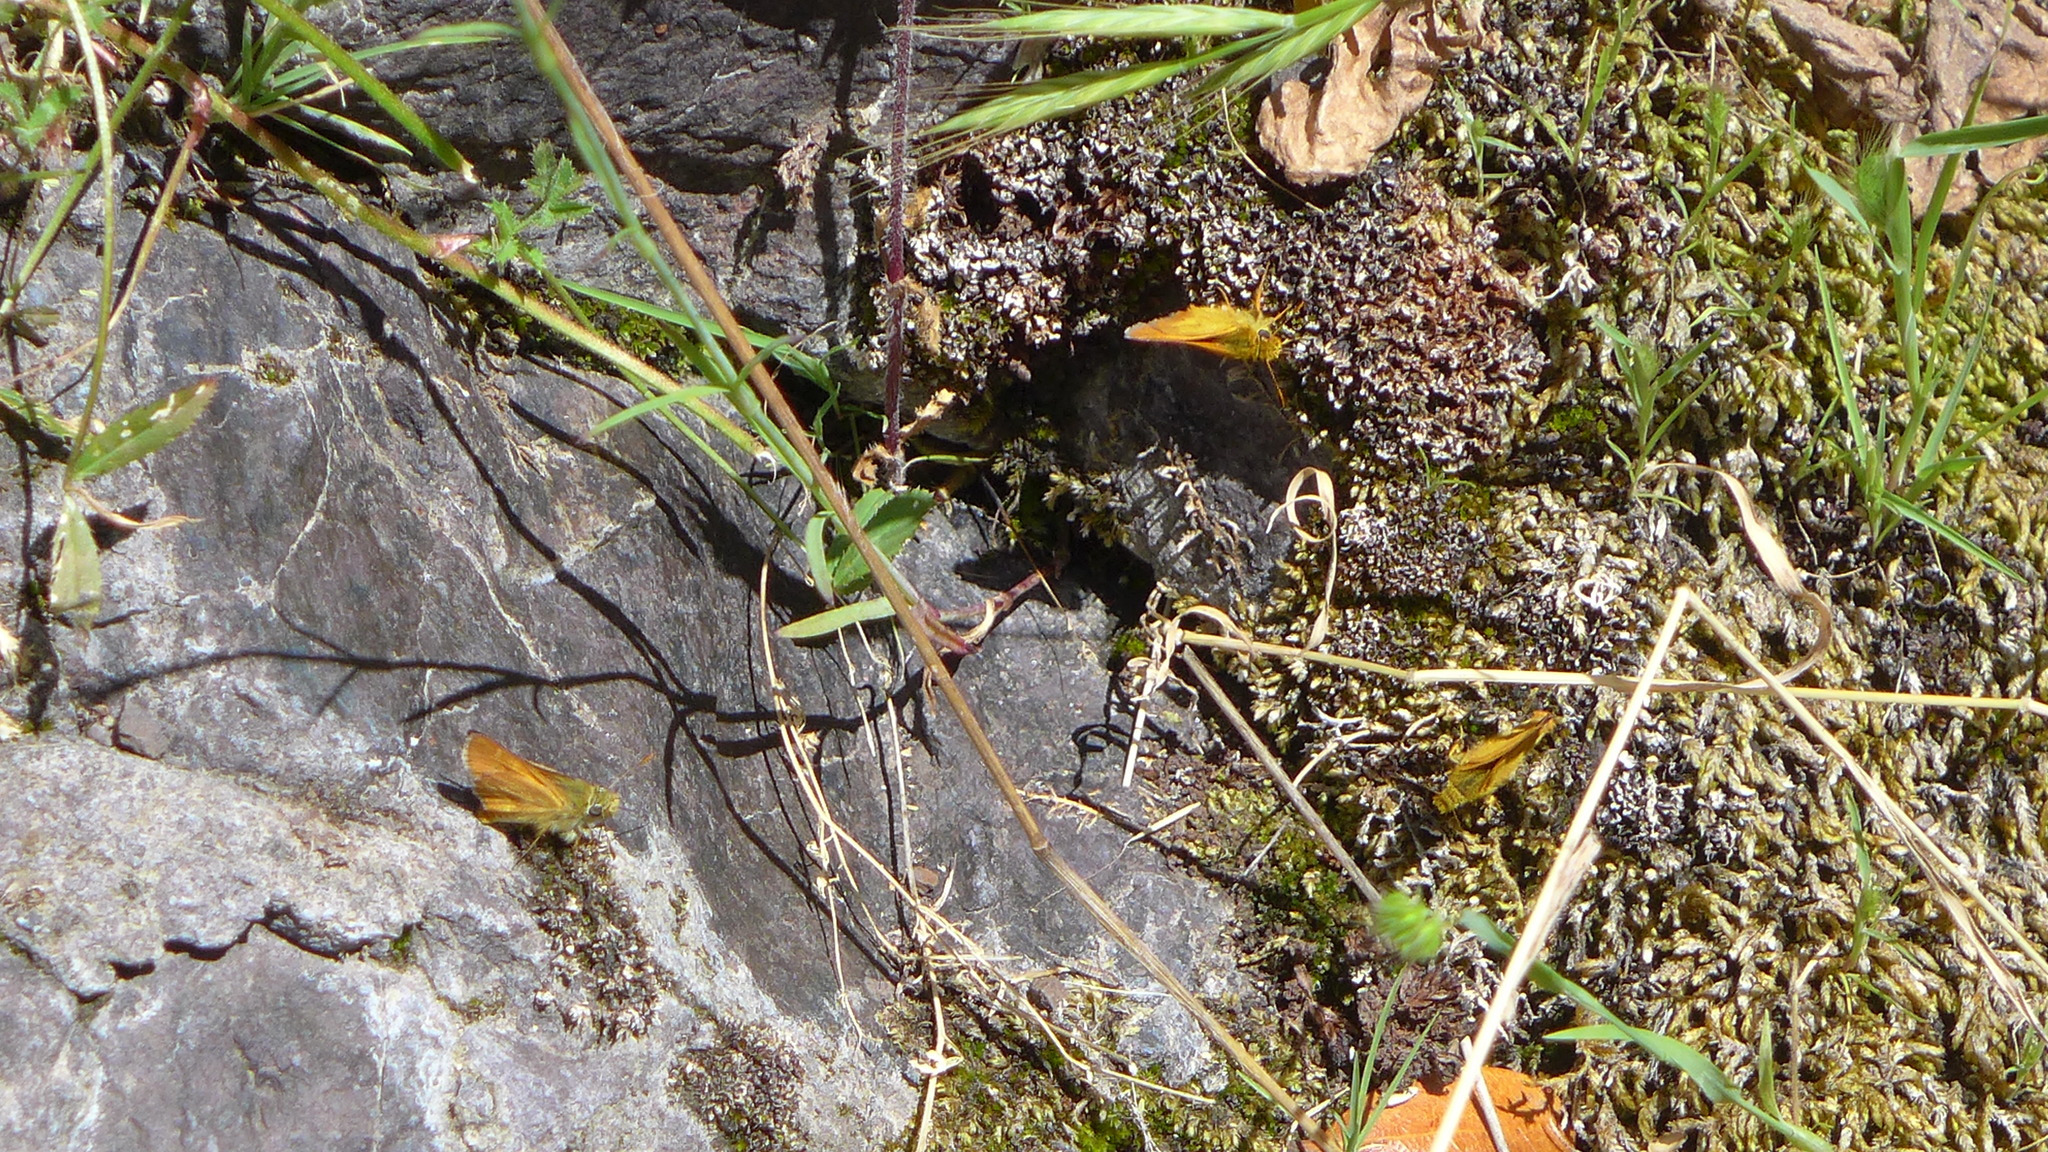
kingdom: Animalia
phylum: Arthropoda
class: Insecta
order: Lepidoptera
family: Hesperiidae
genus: Ochlodes
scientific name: Ochlodes agricola
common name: Rural skipper
